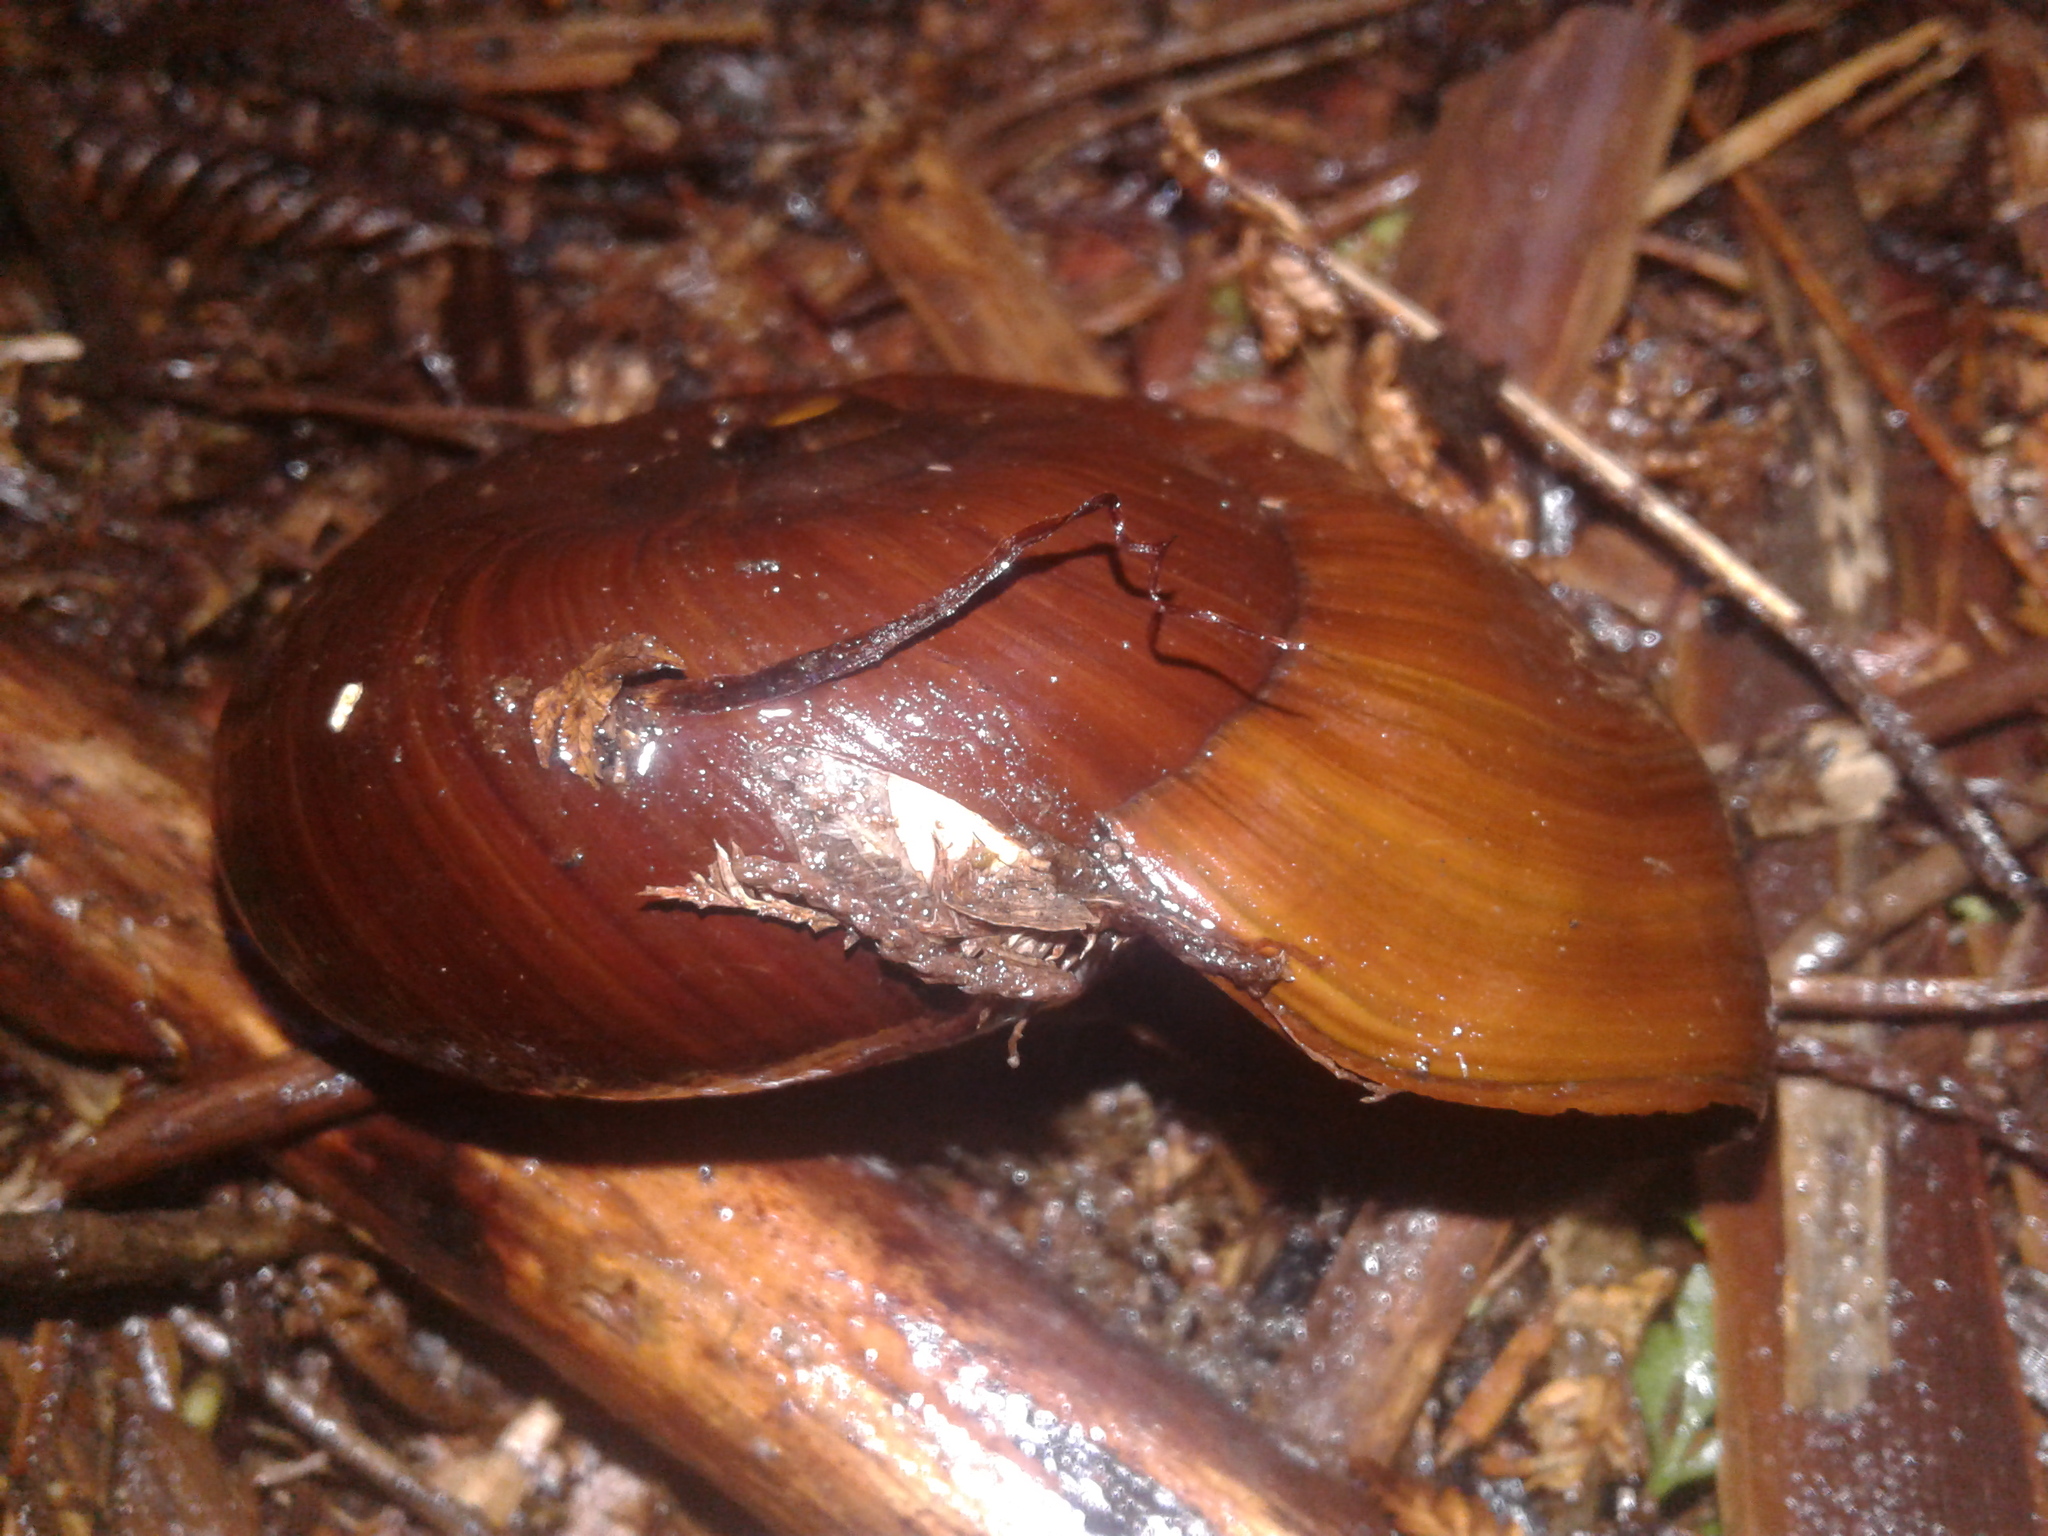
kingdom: Animalia
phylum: Mollusca
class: Gastropoda
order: Stylommatophora
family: Rhytididae
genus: Powelliphanta
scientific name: Powelliphanta superba
